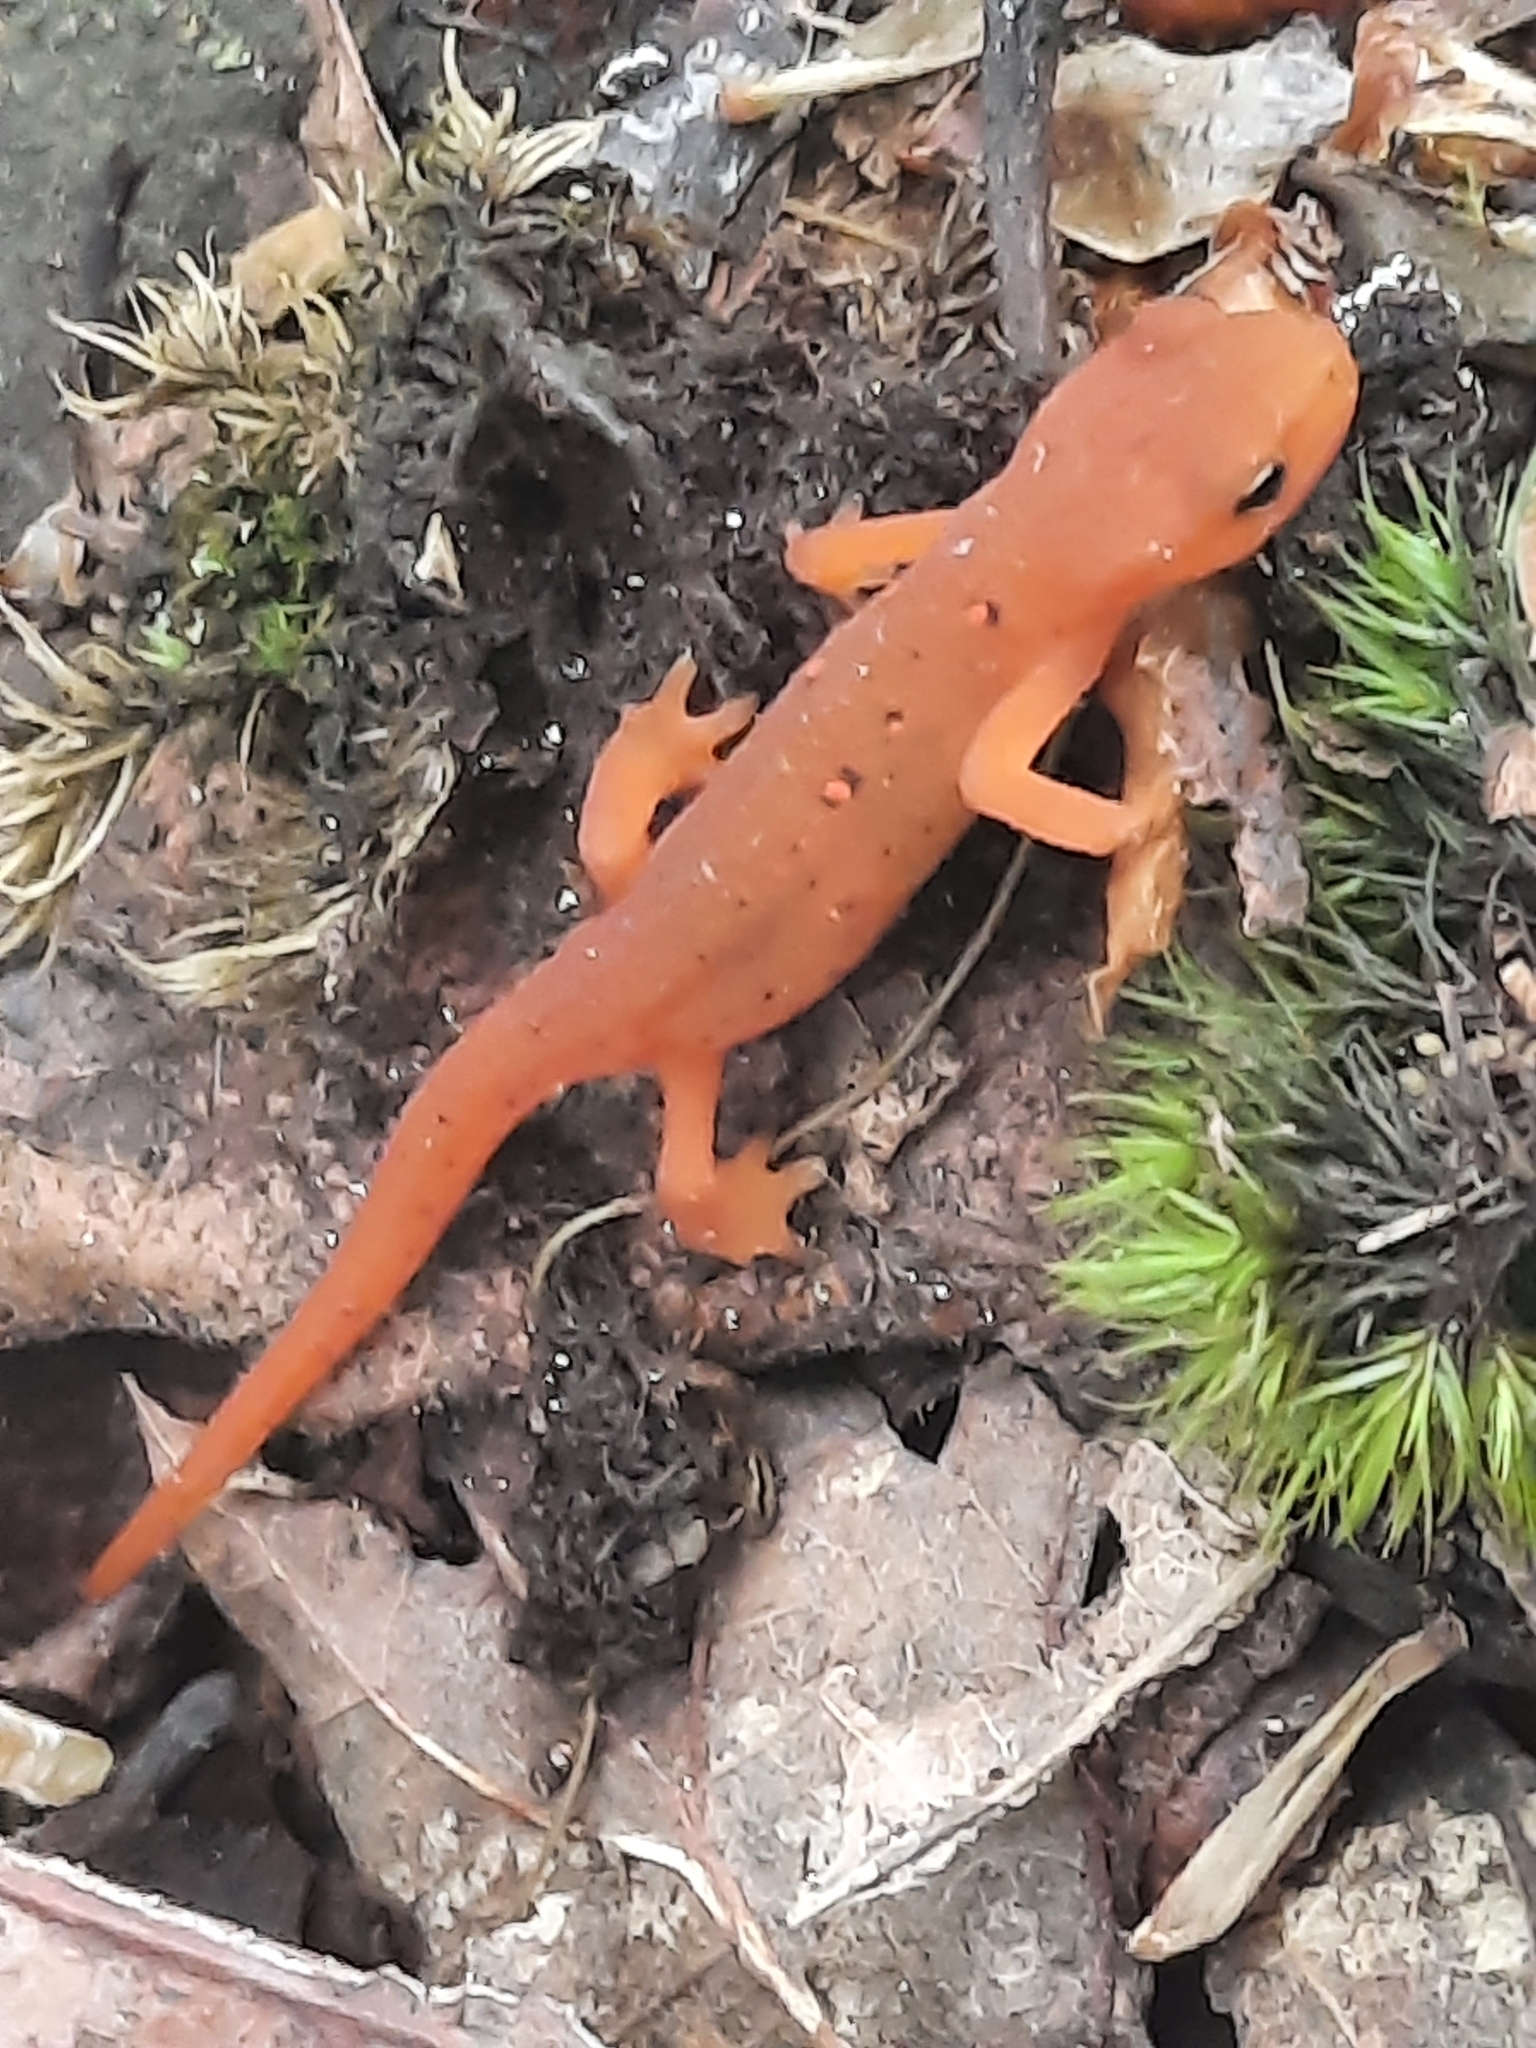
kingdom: Animalia
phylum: Chordata
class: Amphibia
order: Caudata
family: Salamandridae
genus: Notophthalmus
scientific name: Notophthalmus viridescens
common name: Eastern newt
